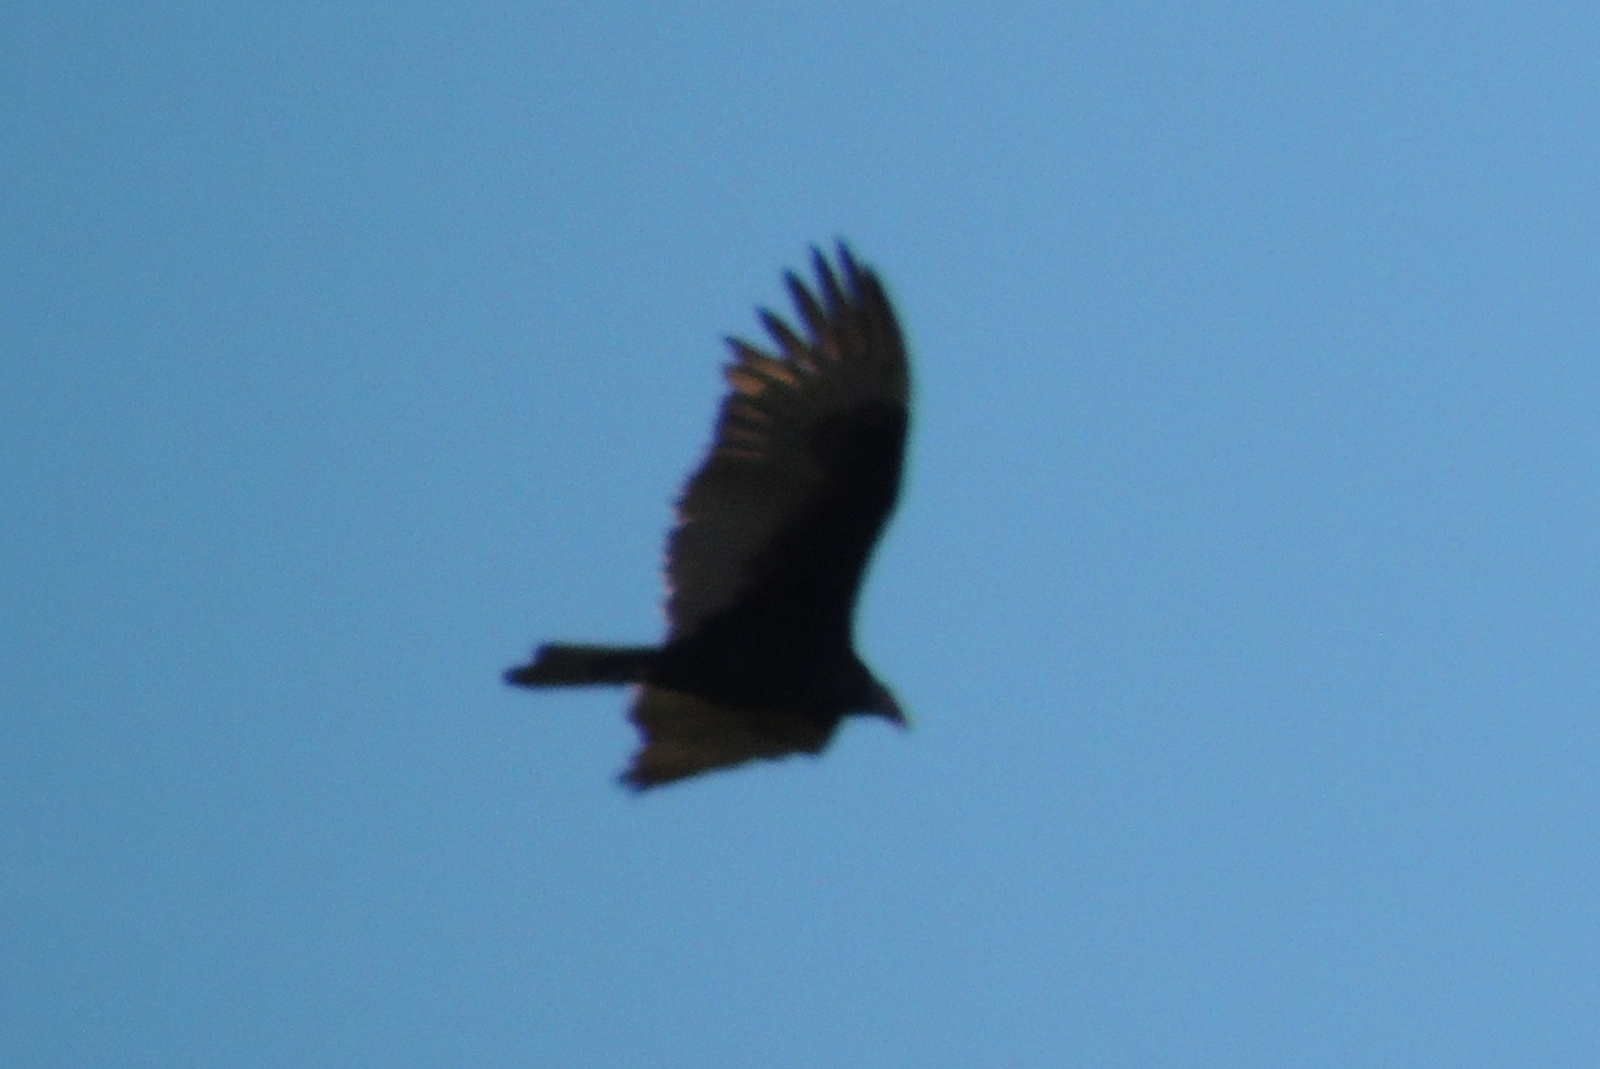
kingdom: Animalia
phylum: Chordata
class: Aves
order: Accipitriformes
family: Cathartidae
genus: Cathartes
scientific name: Cathartes aura
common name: Turkey vulture
